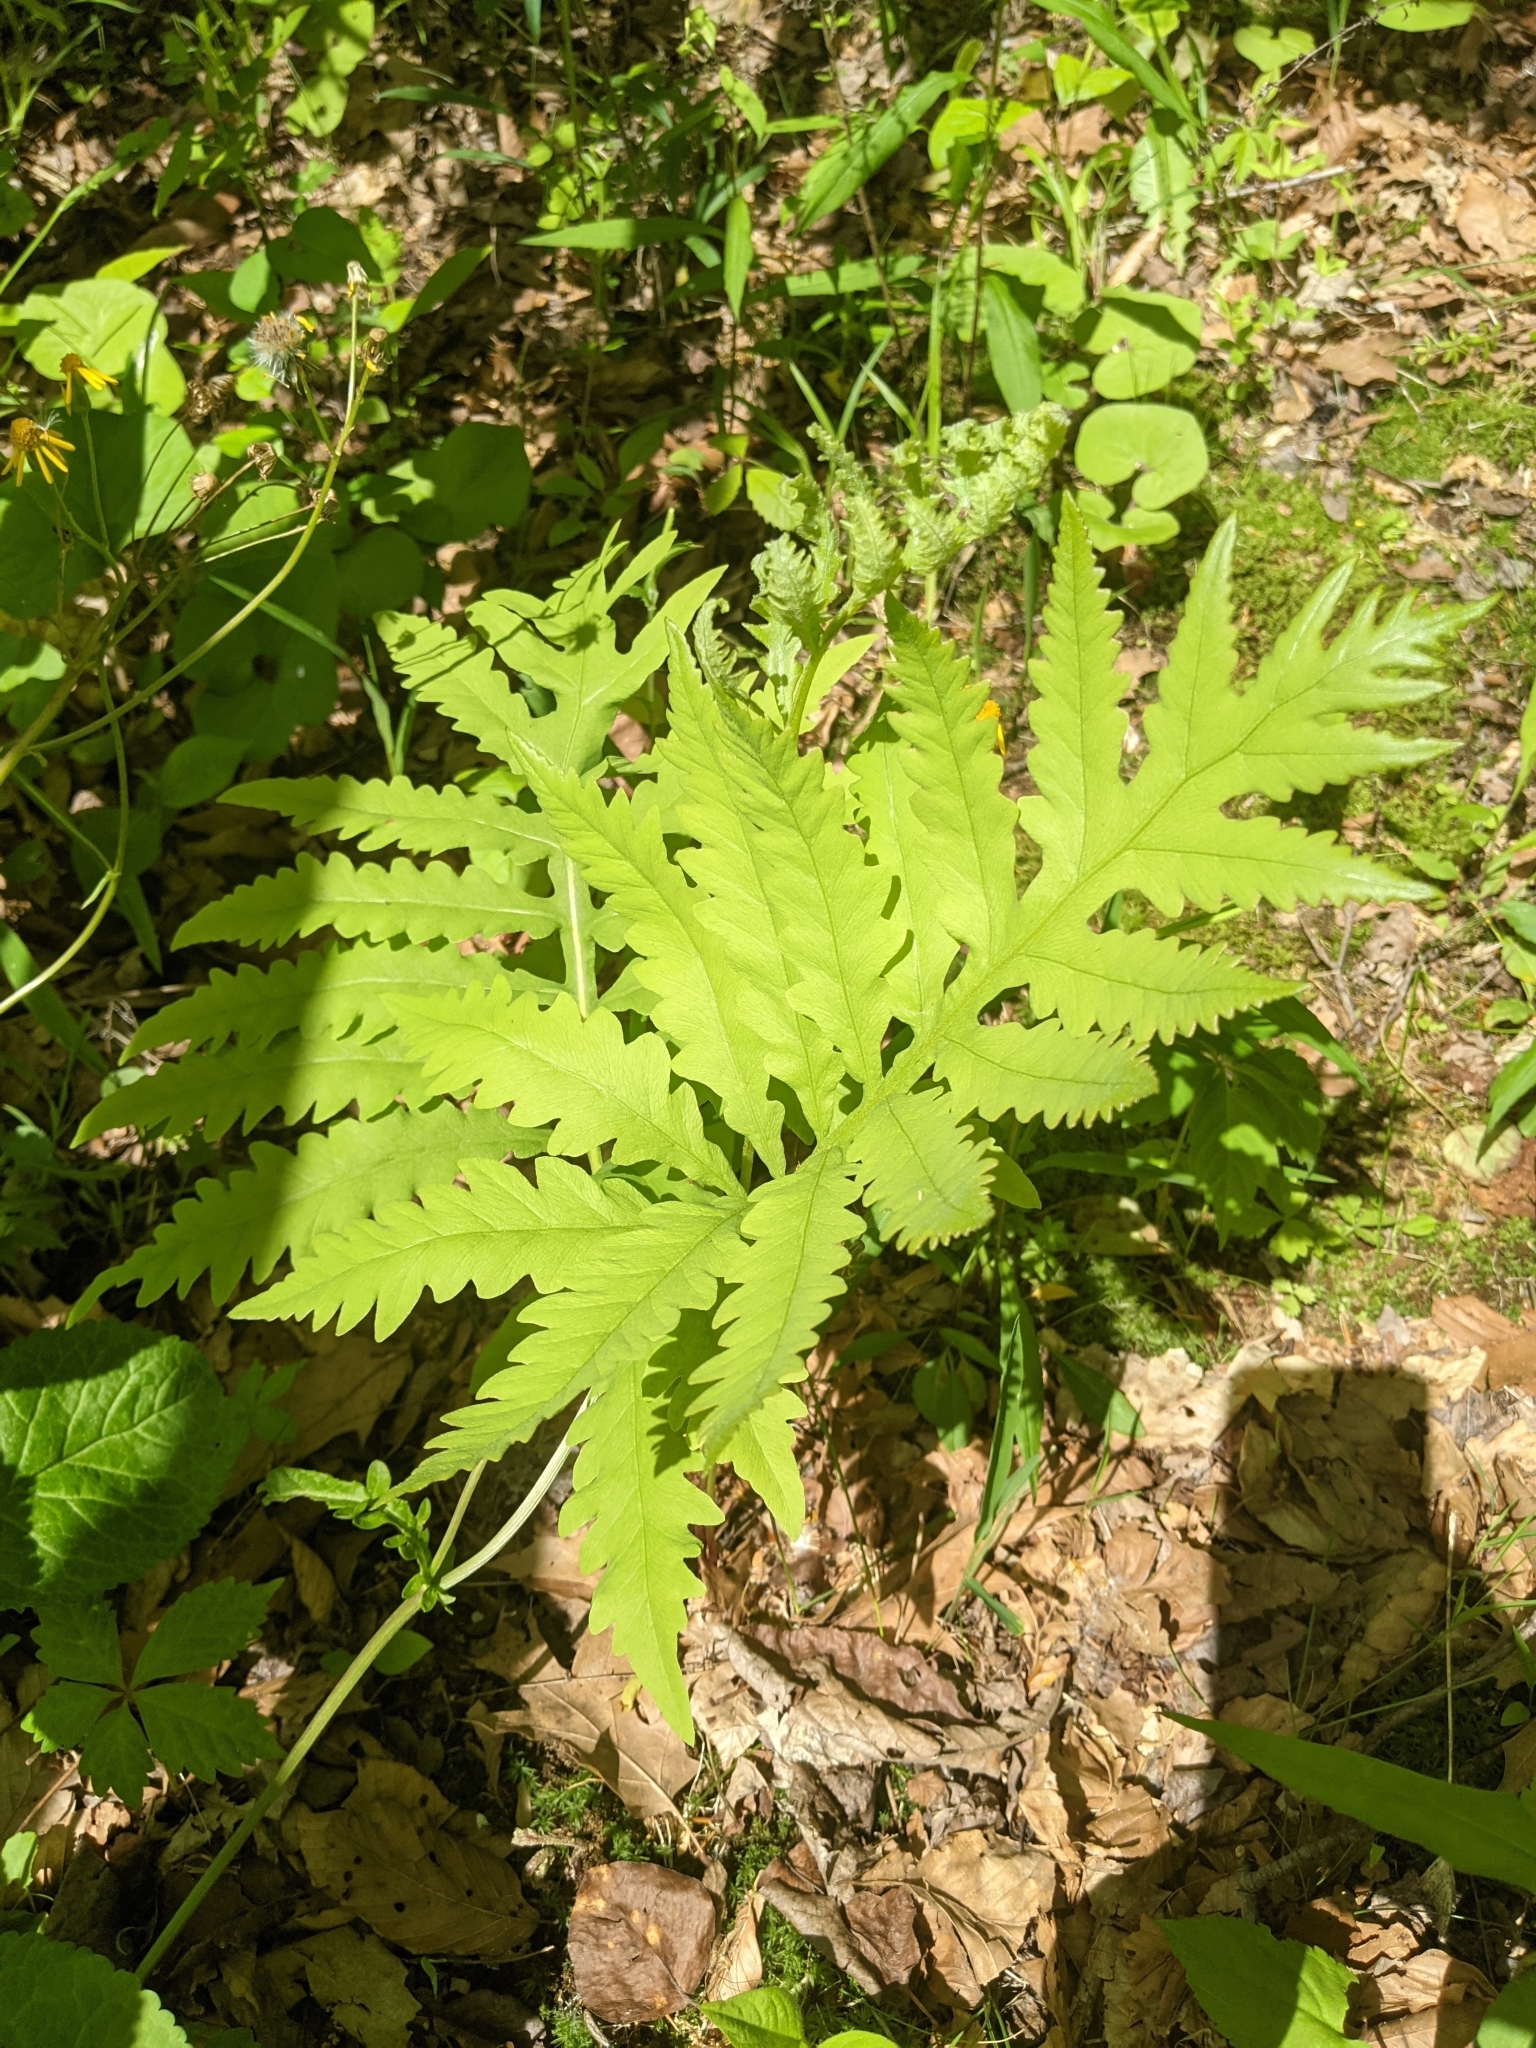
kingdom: Plantae
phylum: Tracheophyta
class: Polypodiopsida
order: Polypodiales
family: Onocleaceae
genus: Onoclea
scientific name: Onoclea sensibilis
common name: Sensitive fern
